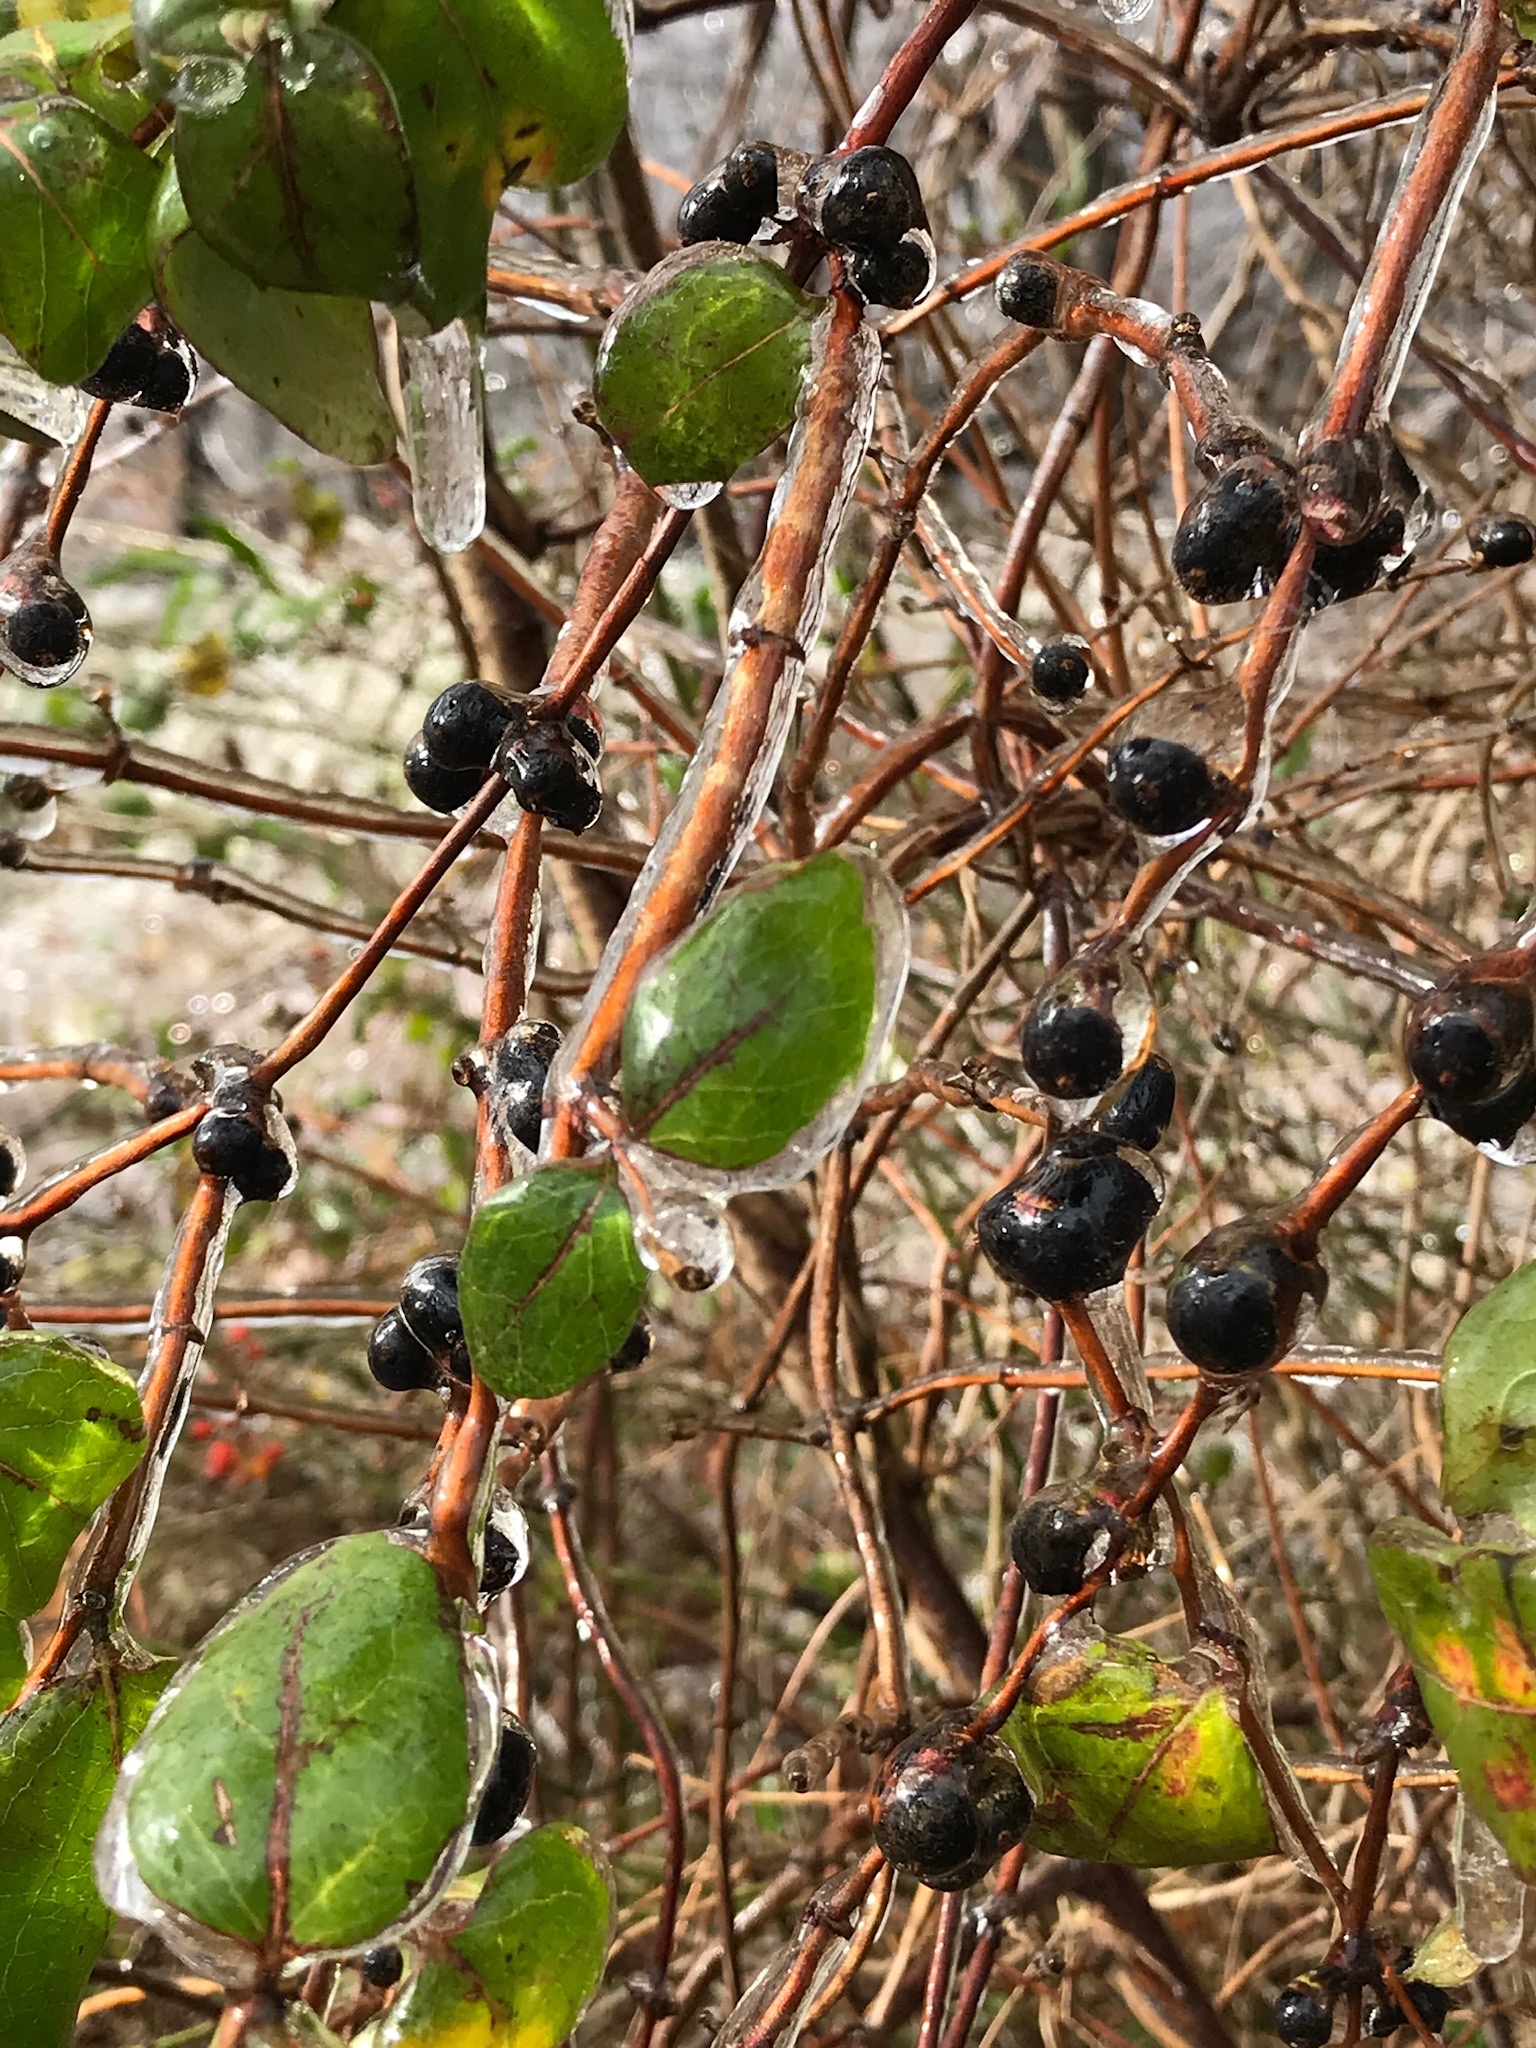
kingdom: Plantae
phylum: Tracheophyta
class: Magnoliopsida
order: Dipsacales
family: Caprifoliaceae
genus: Lonicera
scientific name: Lonicera japonica
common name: Japanese honeysuckle
